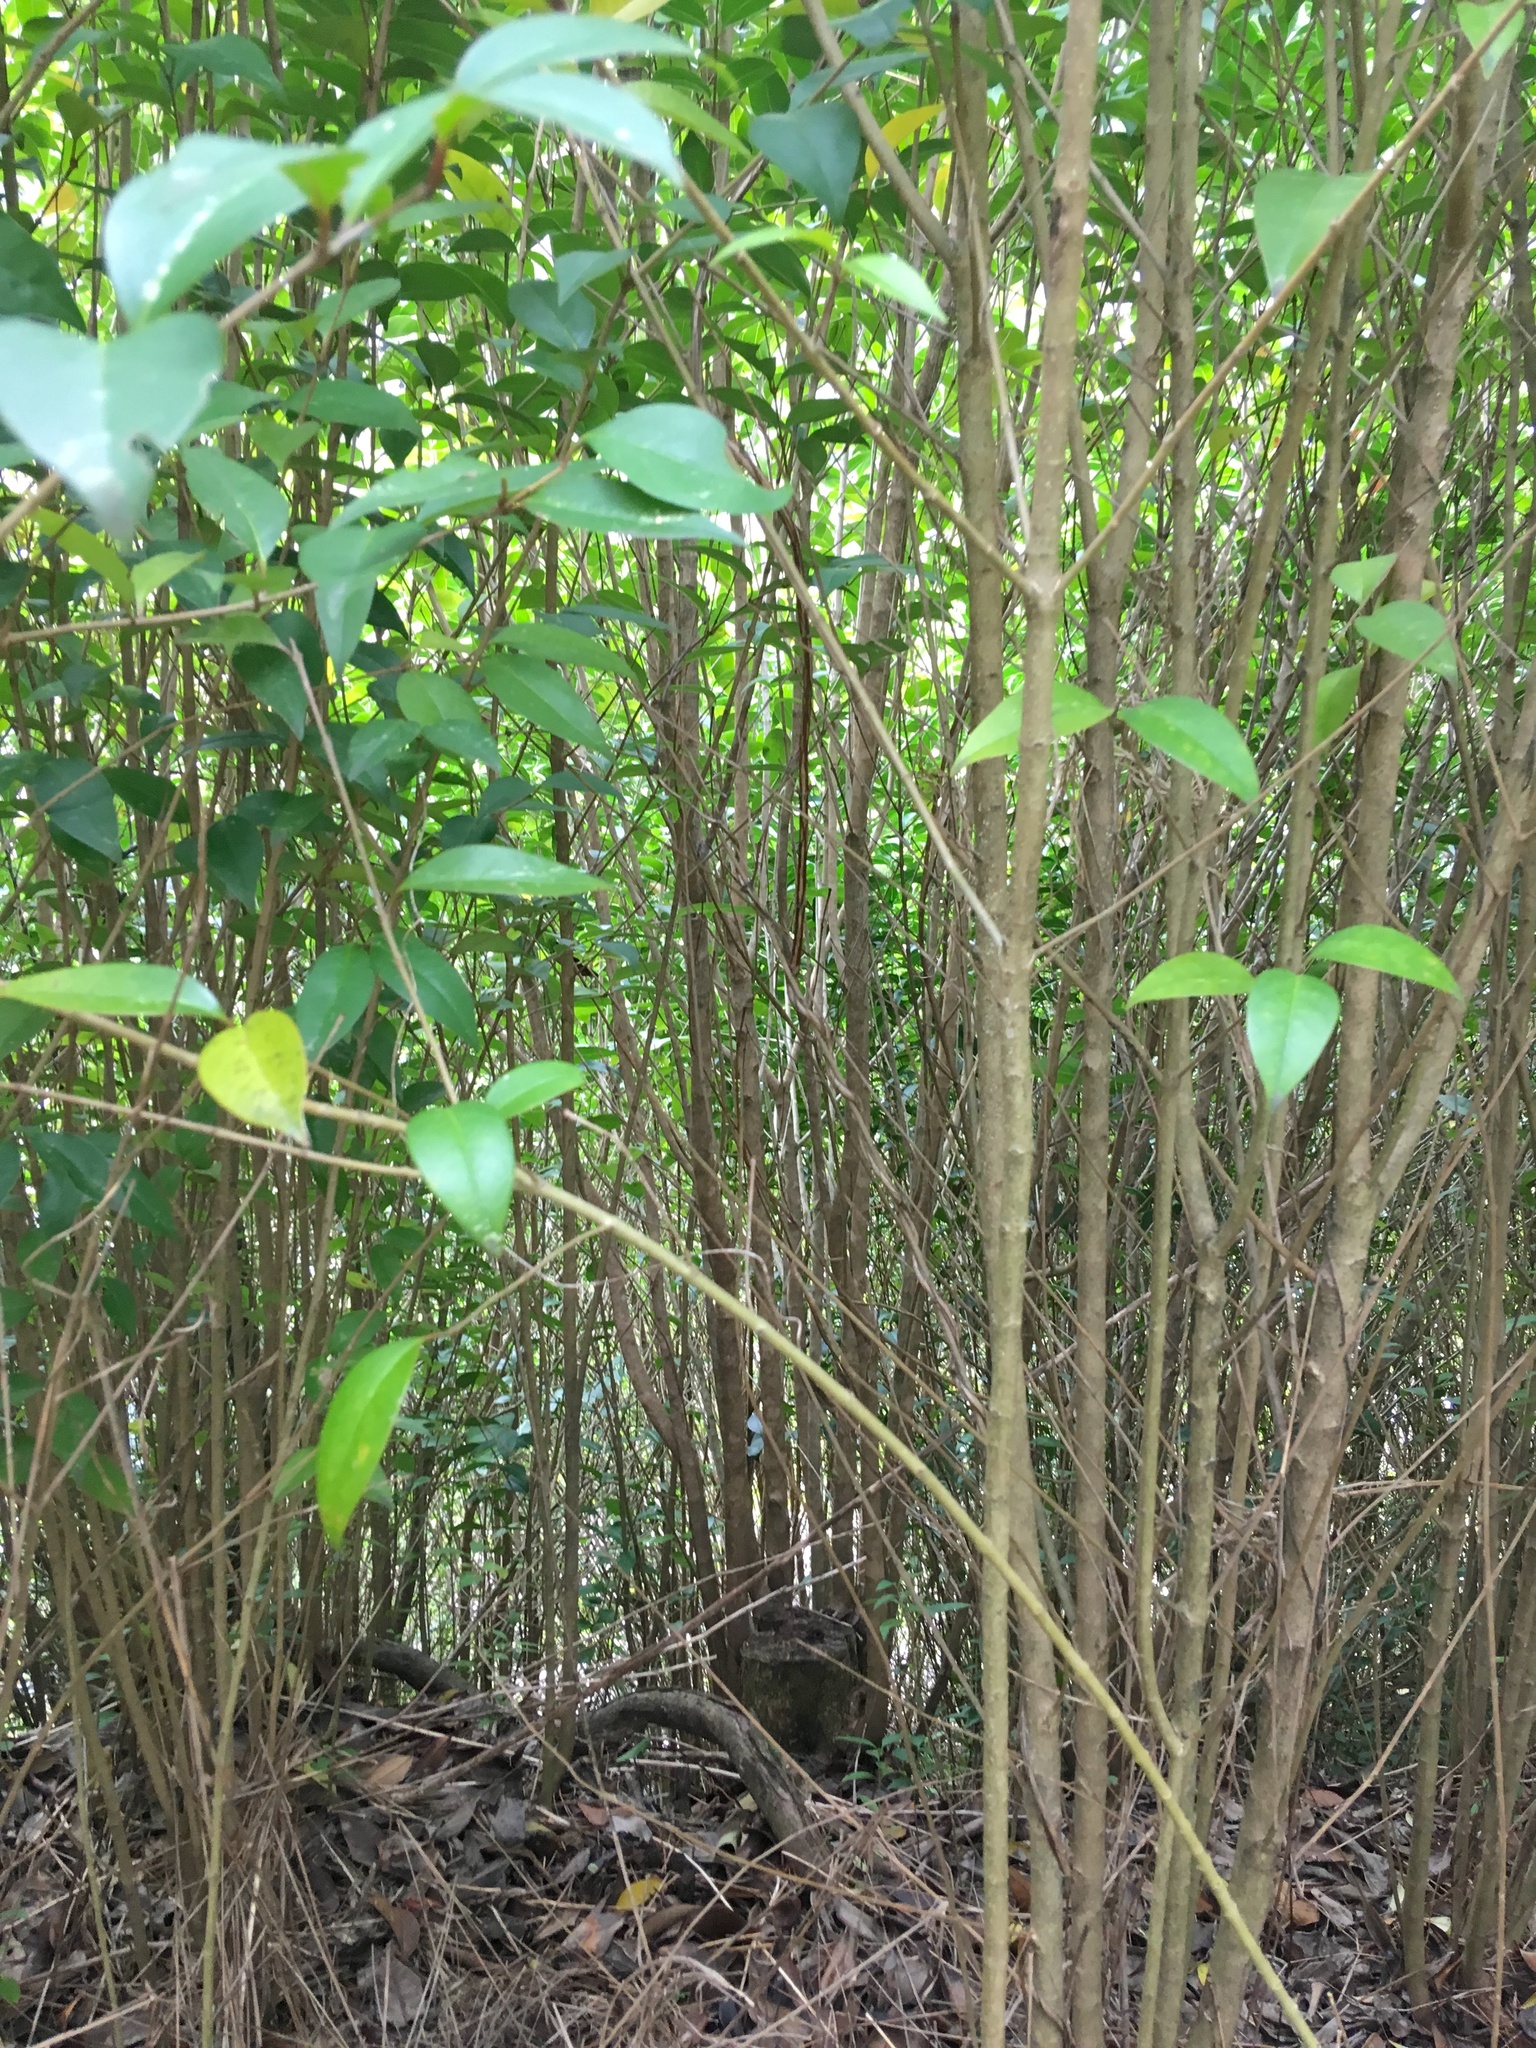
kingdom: Plantae
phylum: Tracheophyta
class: Magnoliopsida
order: Lamiales
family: Oleaceae
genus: Ligustrum
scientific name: Ligustrum lucidum
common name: Glossy privet
